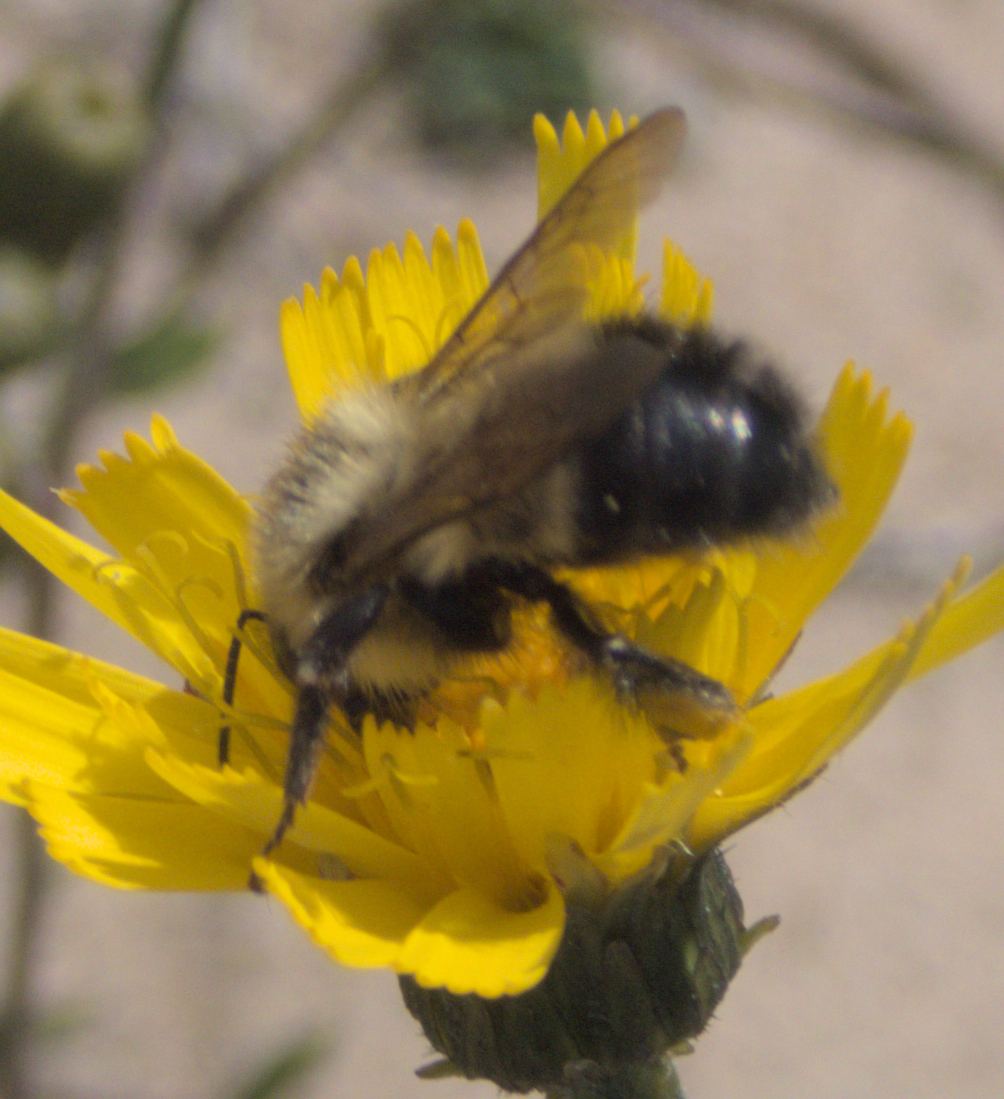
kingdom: Animalia
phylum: Arthropoda
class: Insecta
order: Hymenoptera
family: Apidae
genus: Pyrobombus
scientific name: Pyrobombus
